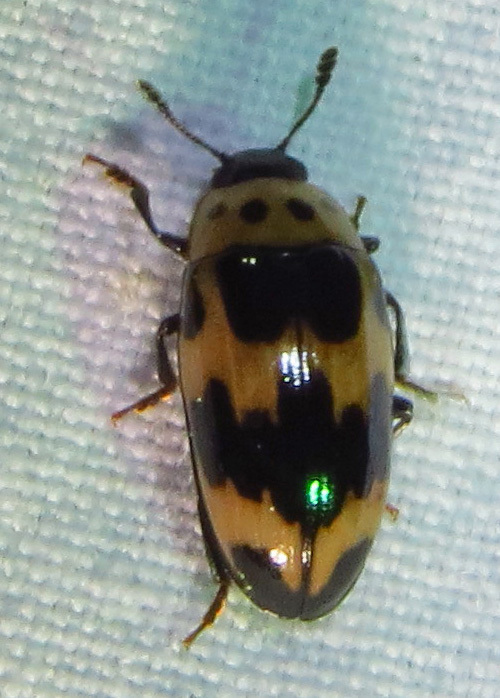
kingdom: Animalia
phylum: Arthropoda
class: Insecta
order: Coleoptera
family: Erotylidae
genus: Ischyrus
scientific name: Ischyrus quadripunctatus
